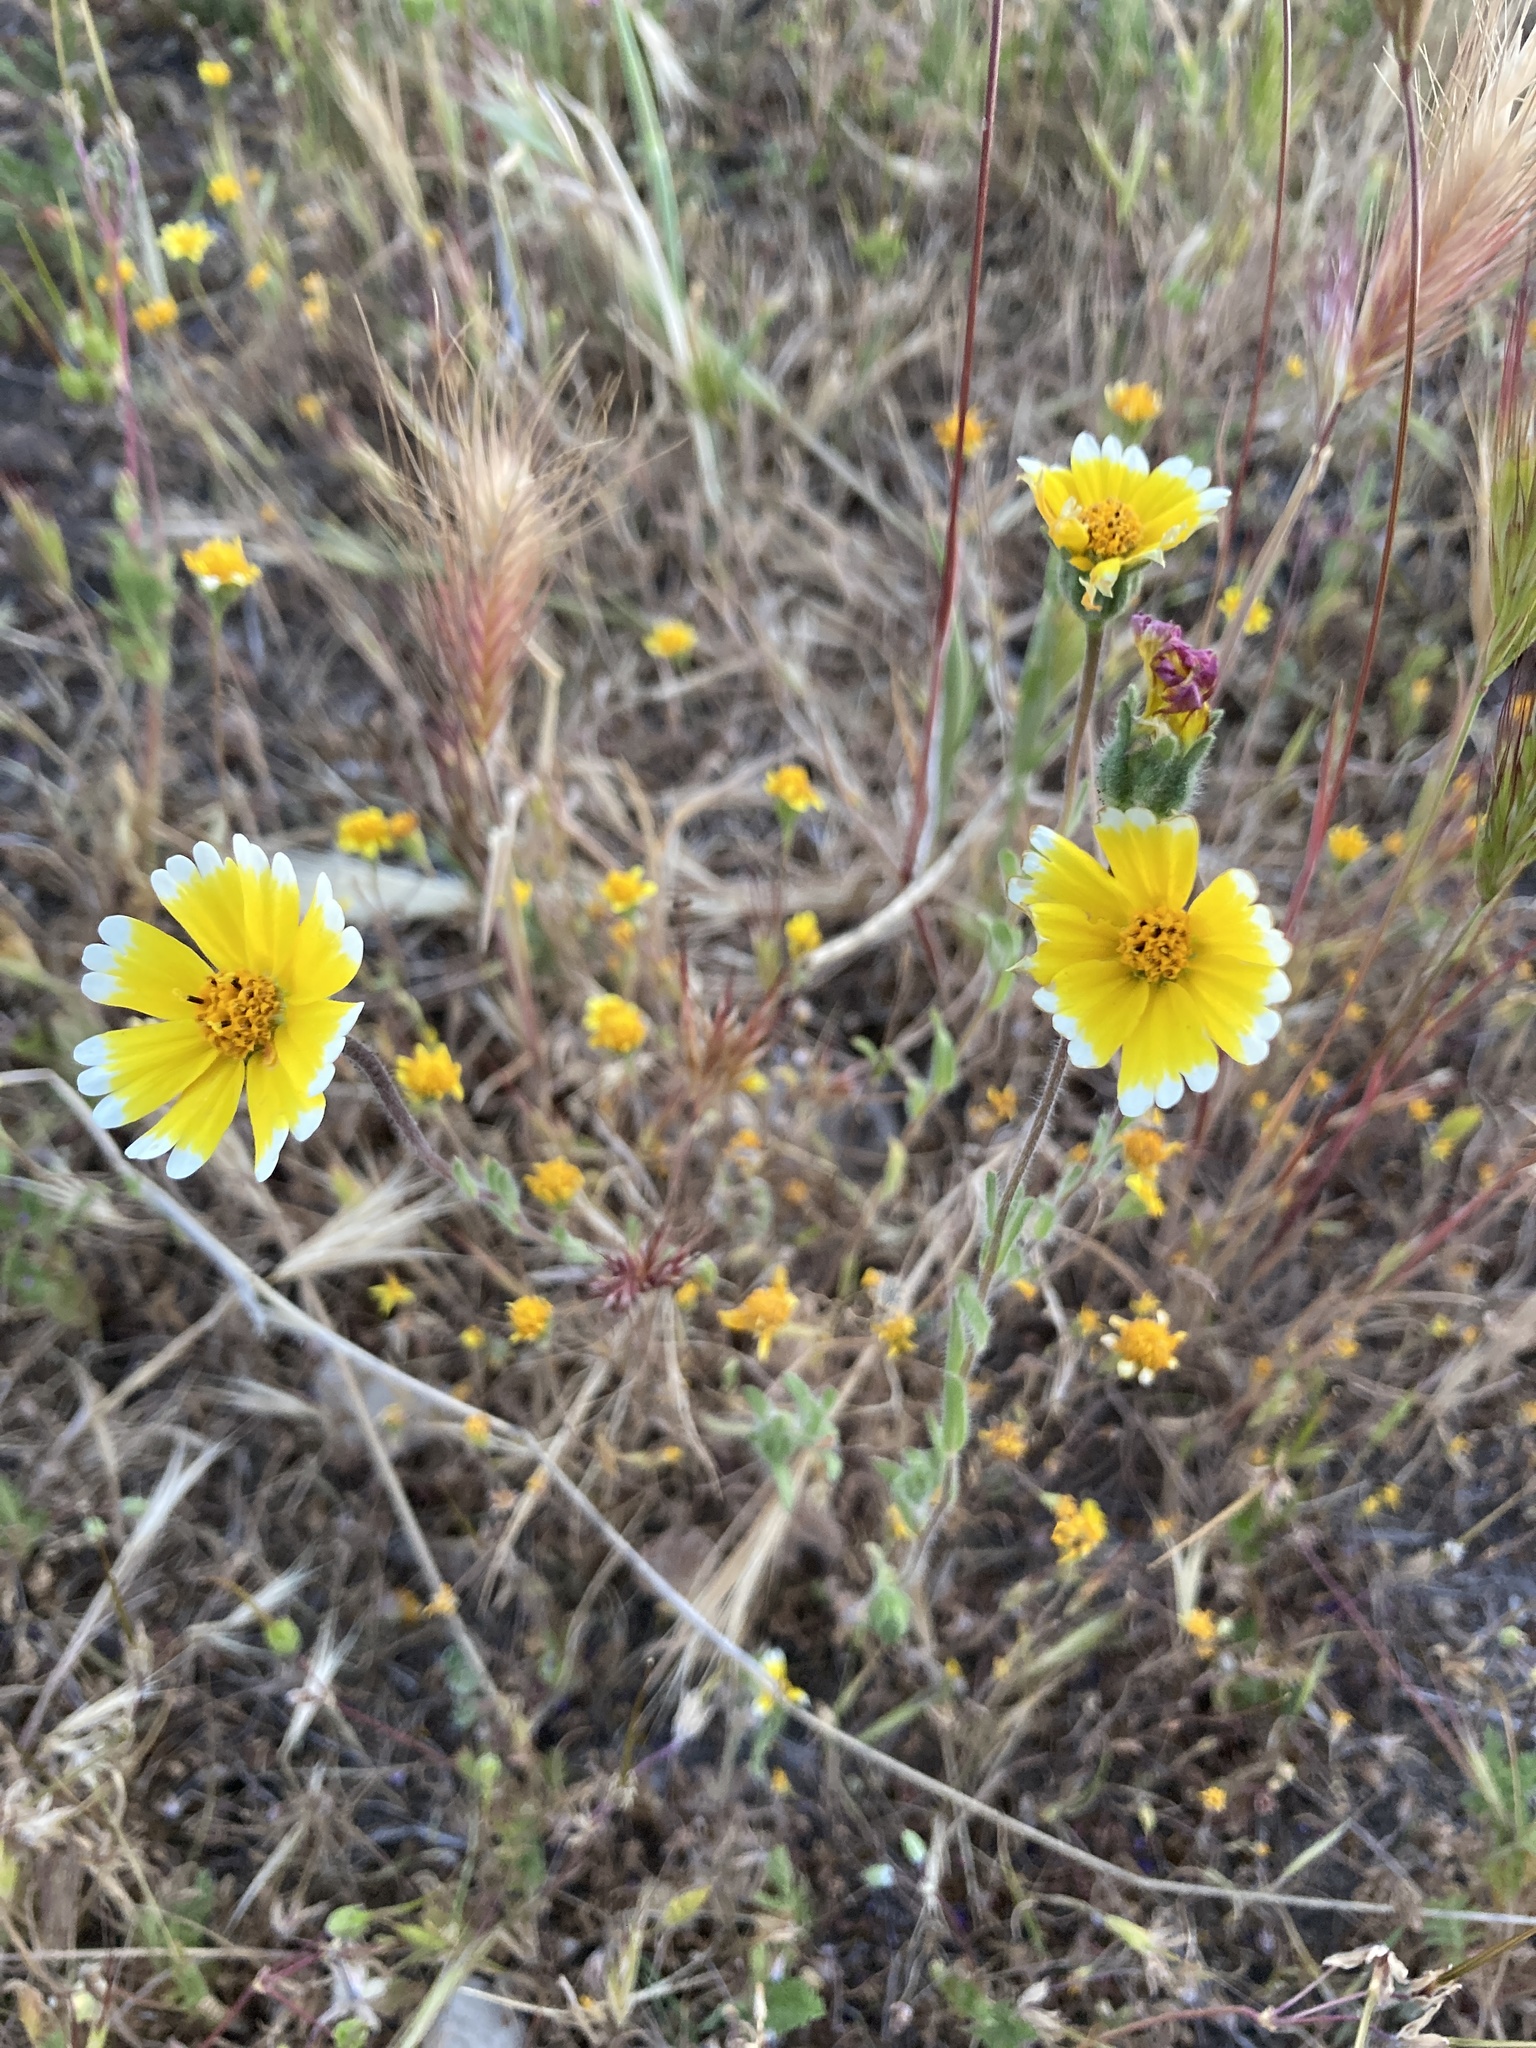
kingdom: Plantae
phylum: Tracheophyta
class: Magnoliopsida
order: Asterales
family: Asteraceae
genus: Layia
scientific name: Layia platyglossa
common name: Tidy-tips
